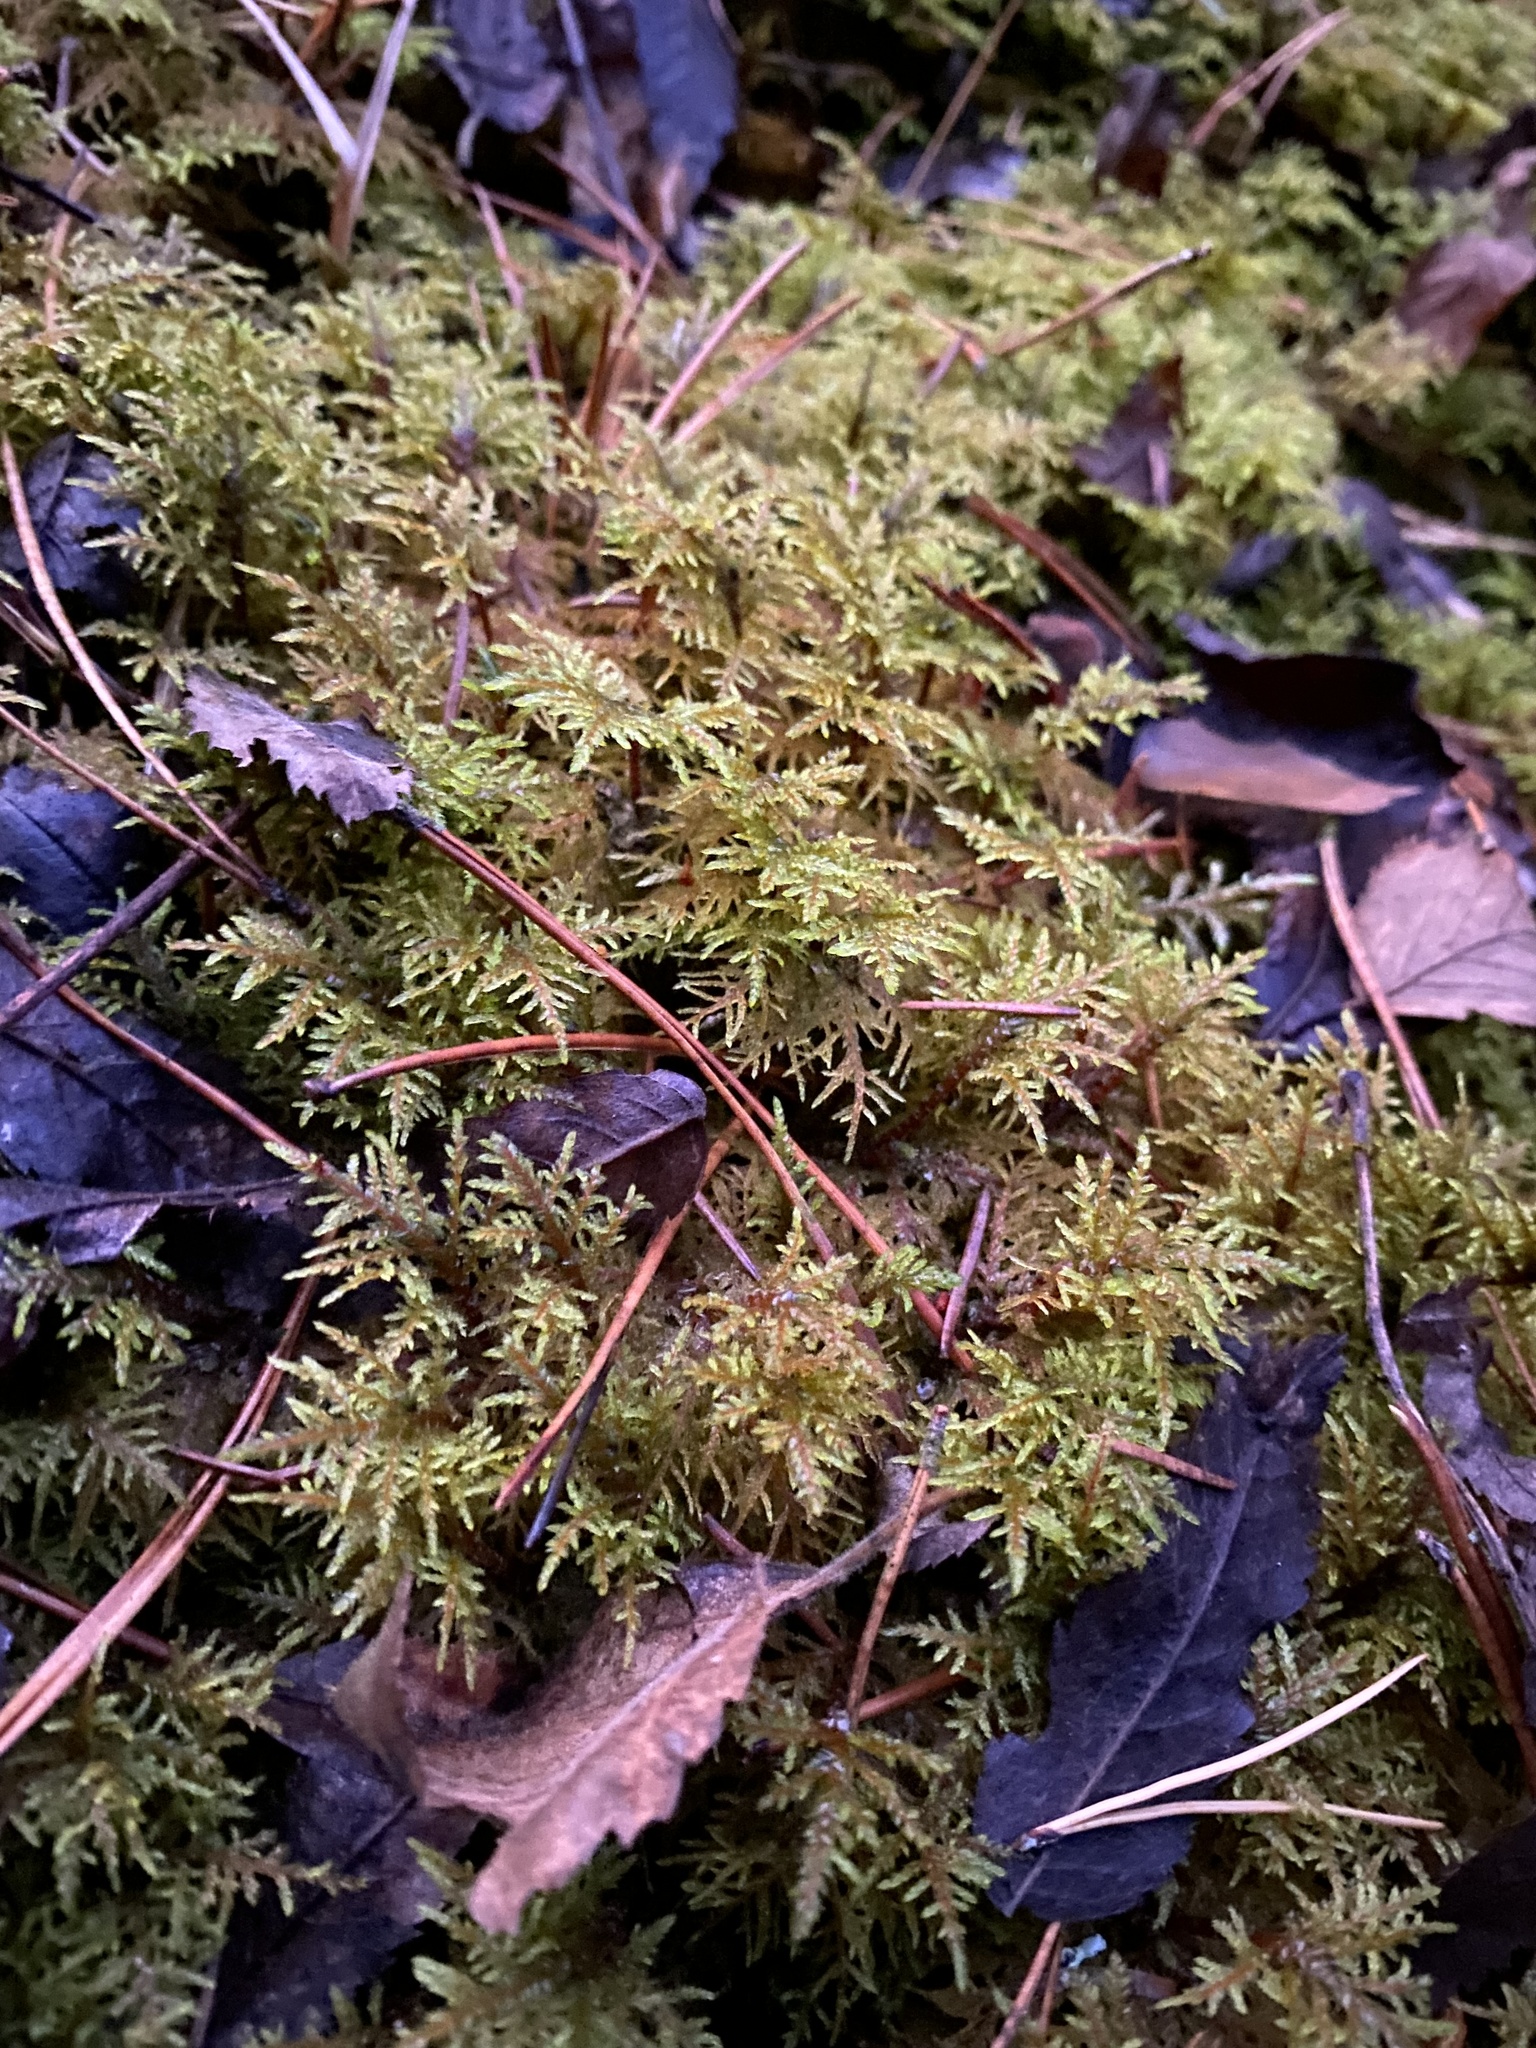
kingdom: Plantae
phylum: Bryophyta
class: Bryopsida
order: Hypnales
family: Hylocomiaceae
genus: Hylocomium
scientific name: Hylocomium splendens
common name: Stairstep moss
